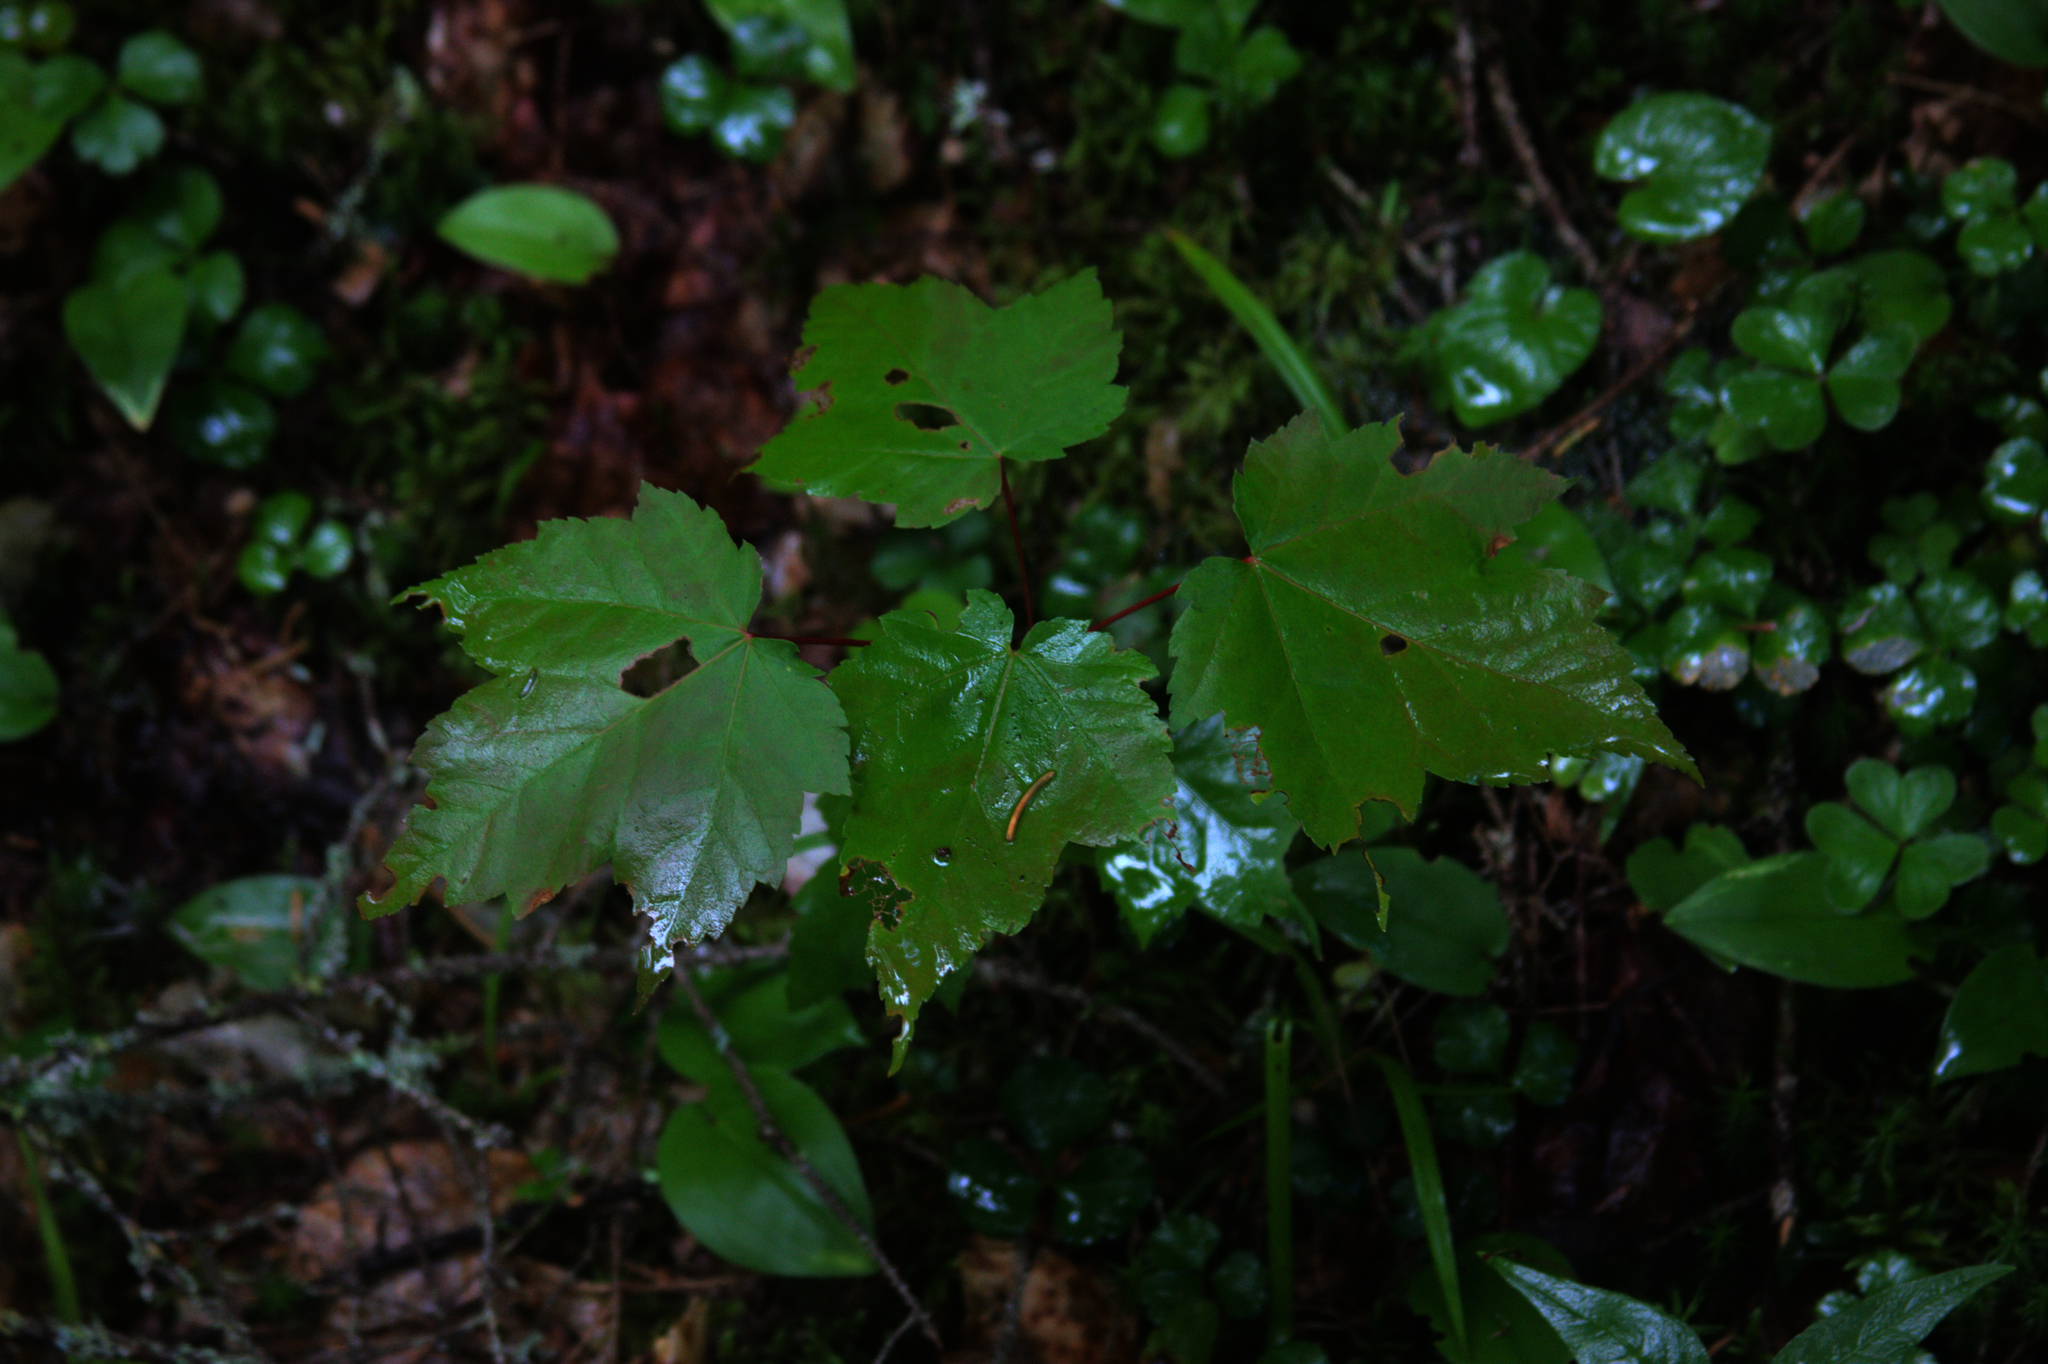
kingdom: Plantae
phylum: Tracheophyta
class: Magnoliopsida
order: Sapindales
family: Sapindaceae
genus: Acer
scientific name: Acer rubrum
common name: Red maple
